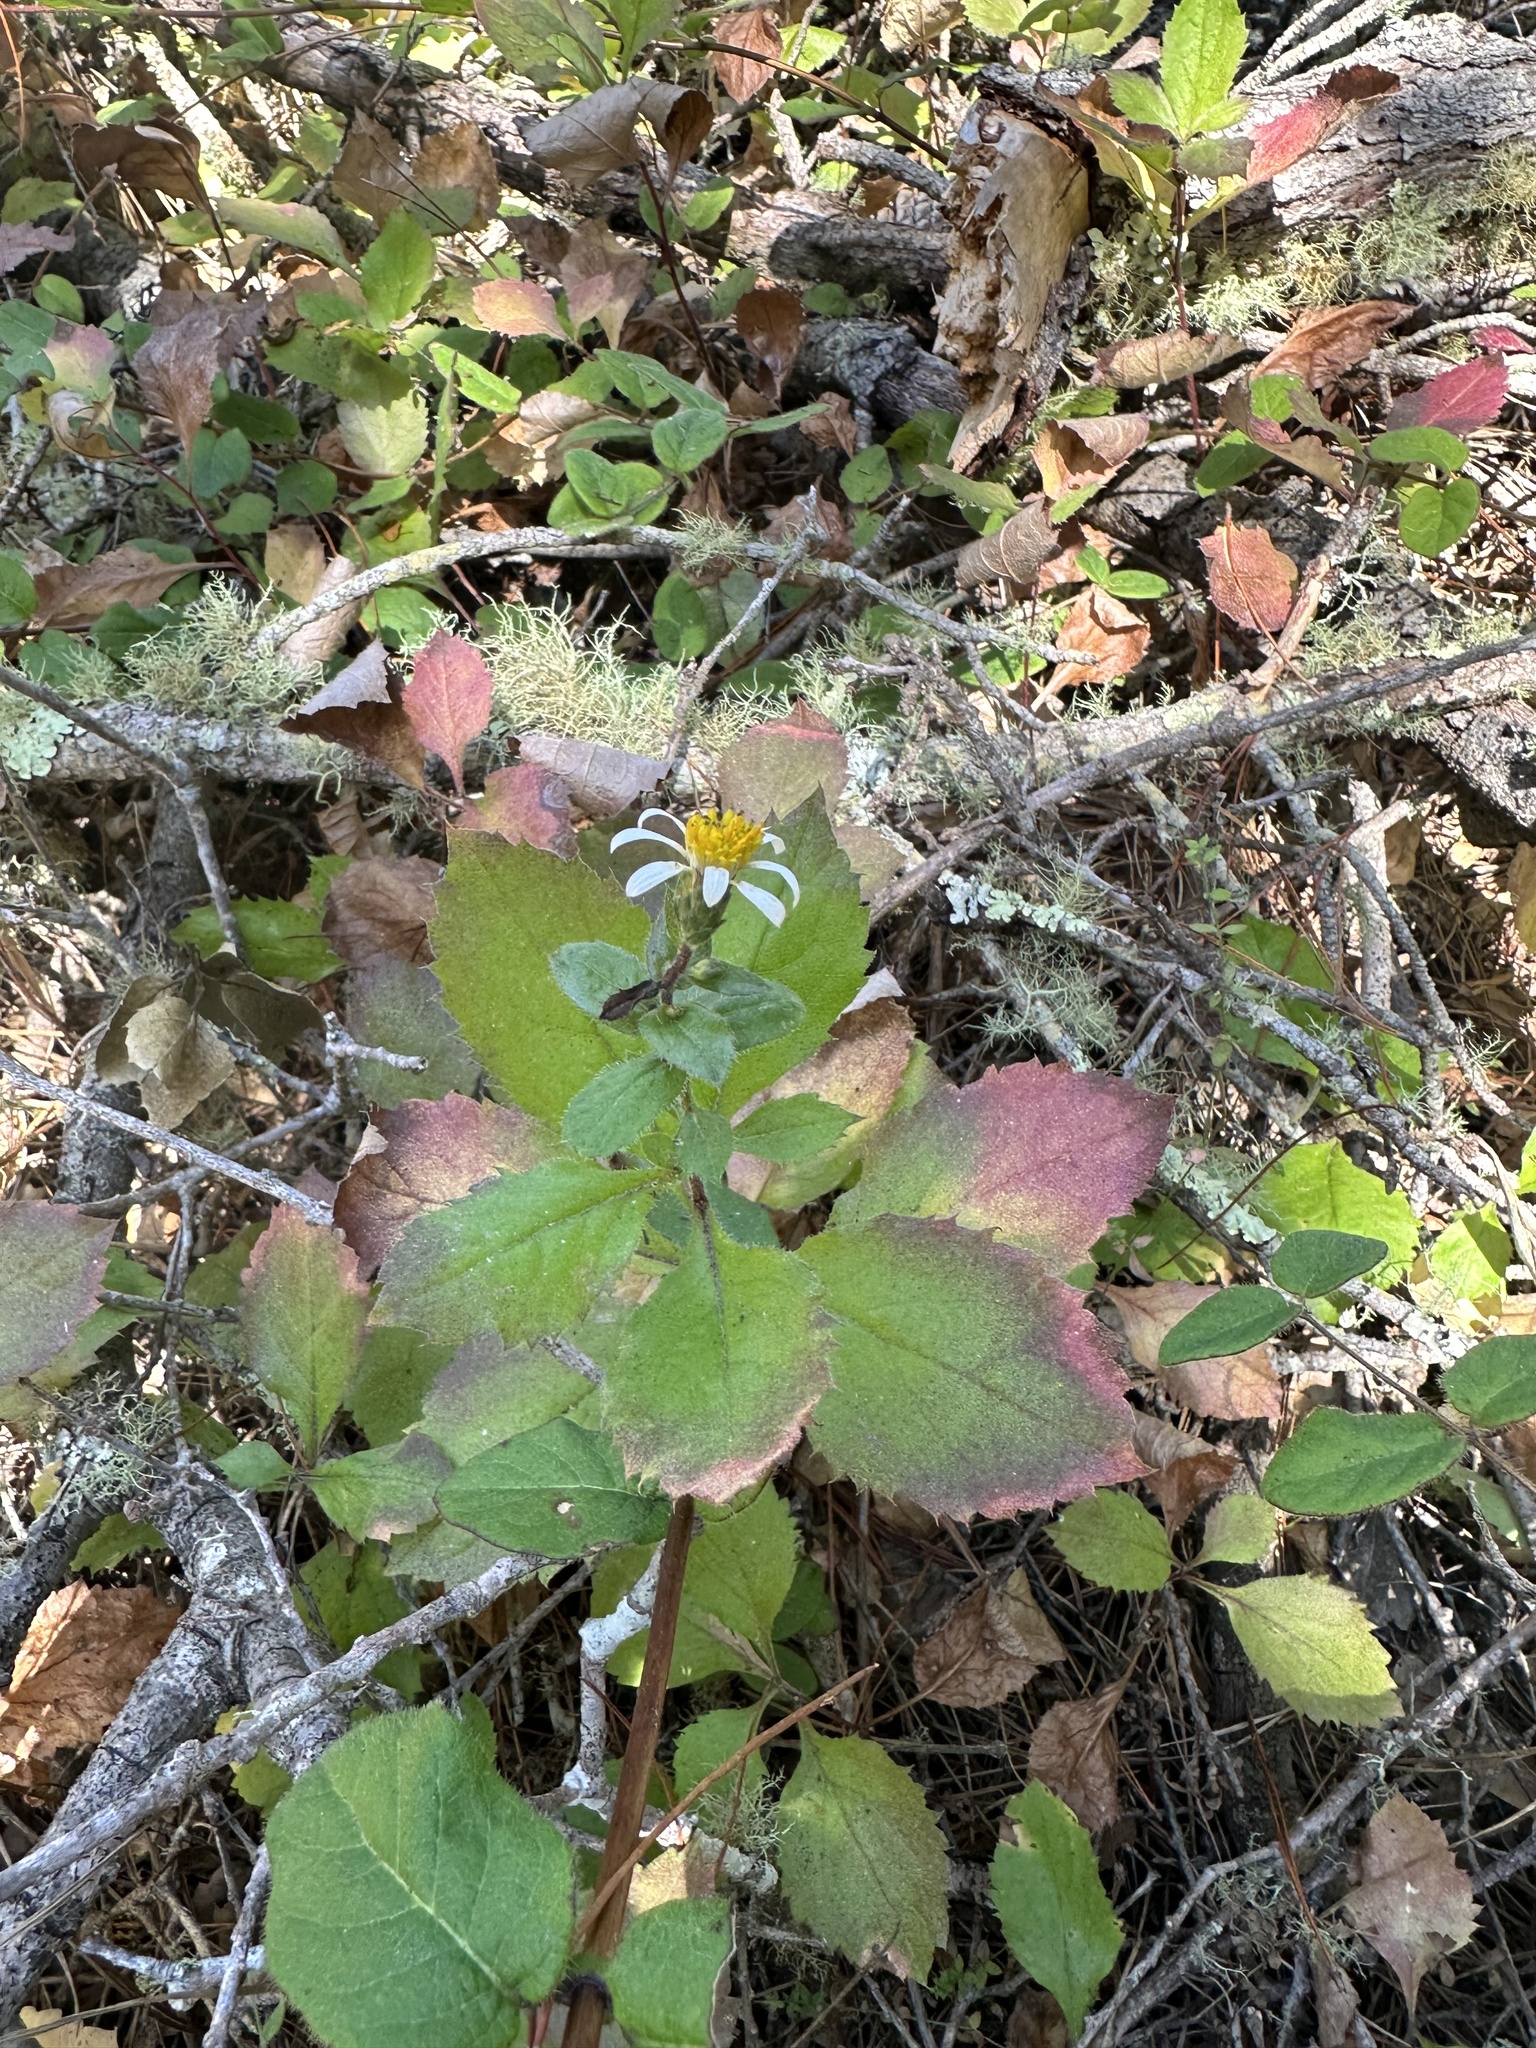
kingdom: Plantae
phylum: Tracheophyta
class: Magnoliopsida
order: Asterales
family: Asteraceae
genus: Eurybia
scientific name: Eurybia radulina
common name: Rough-leaved aster
